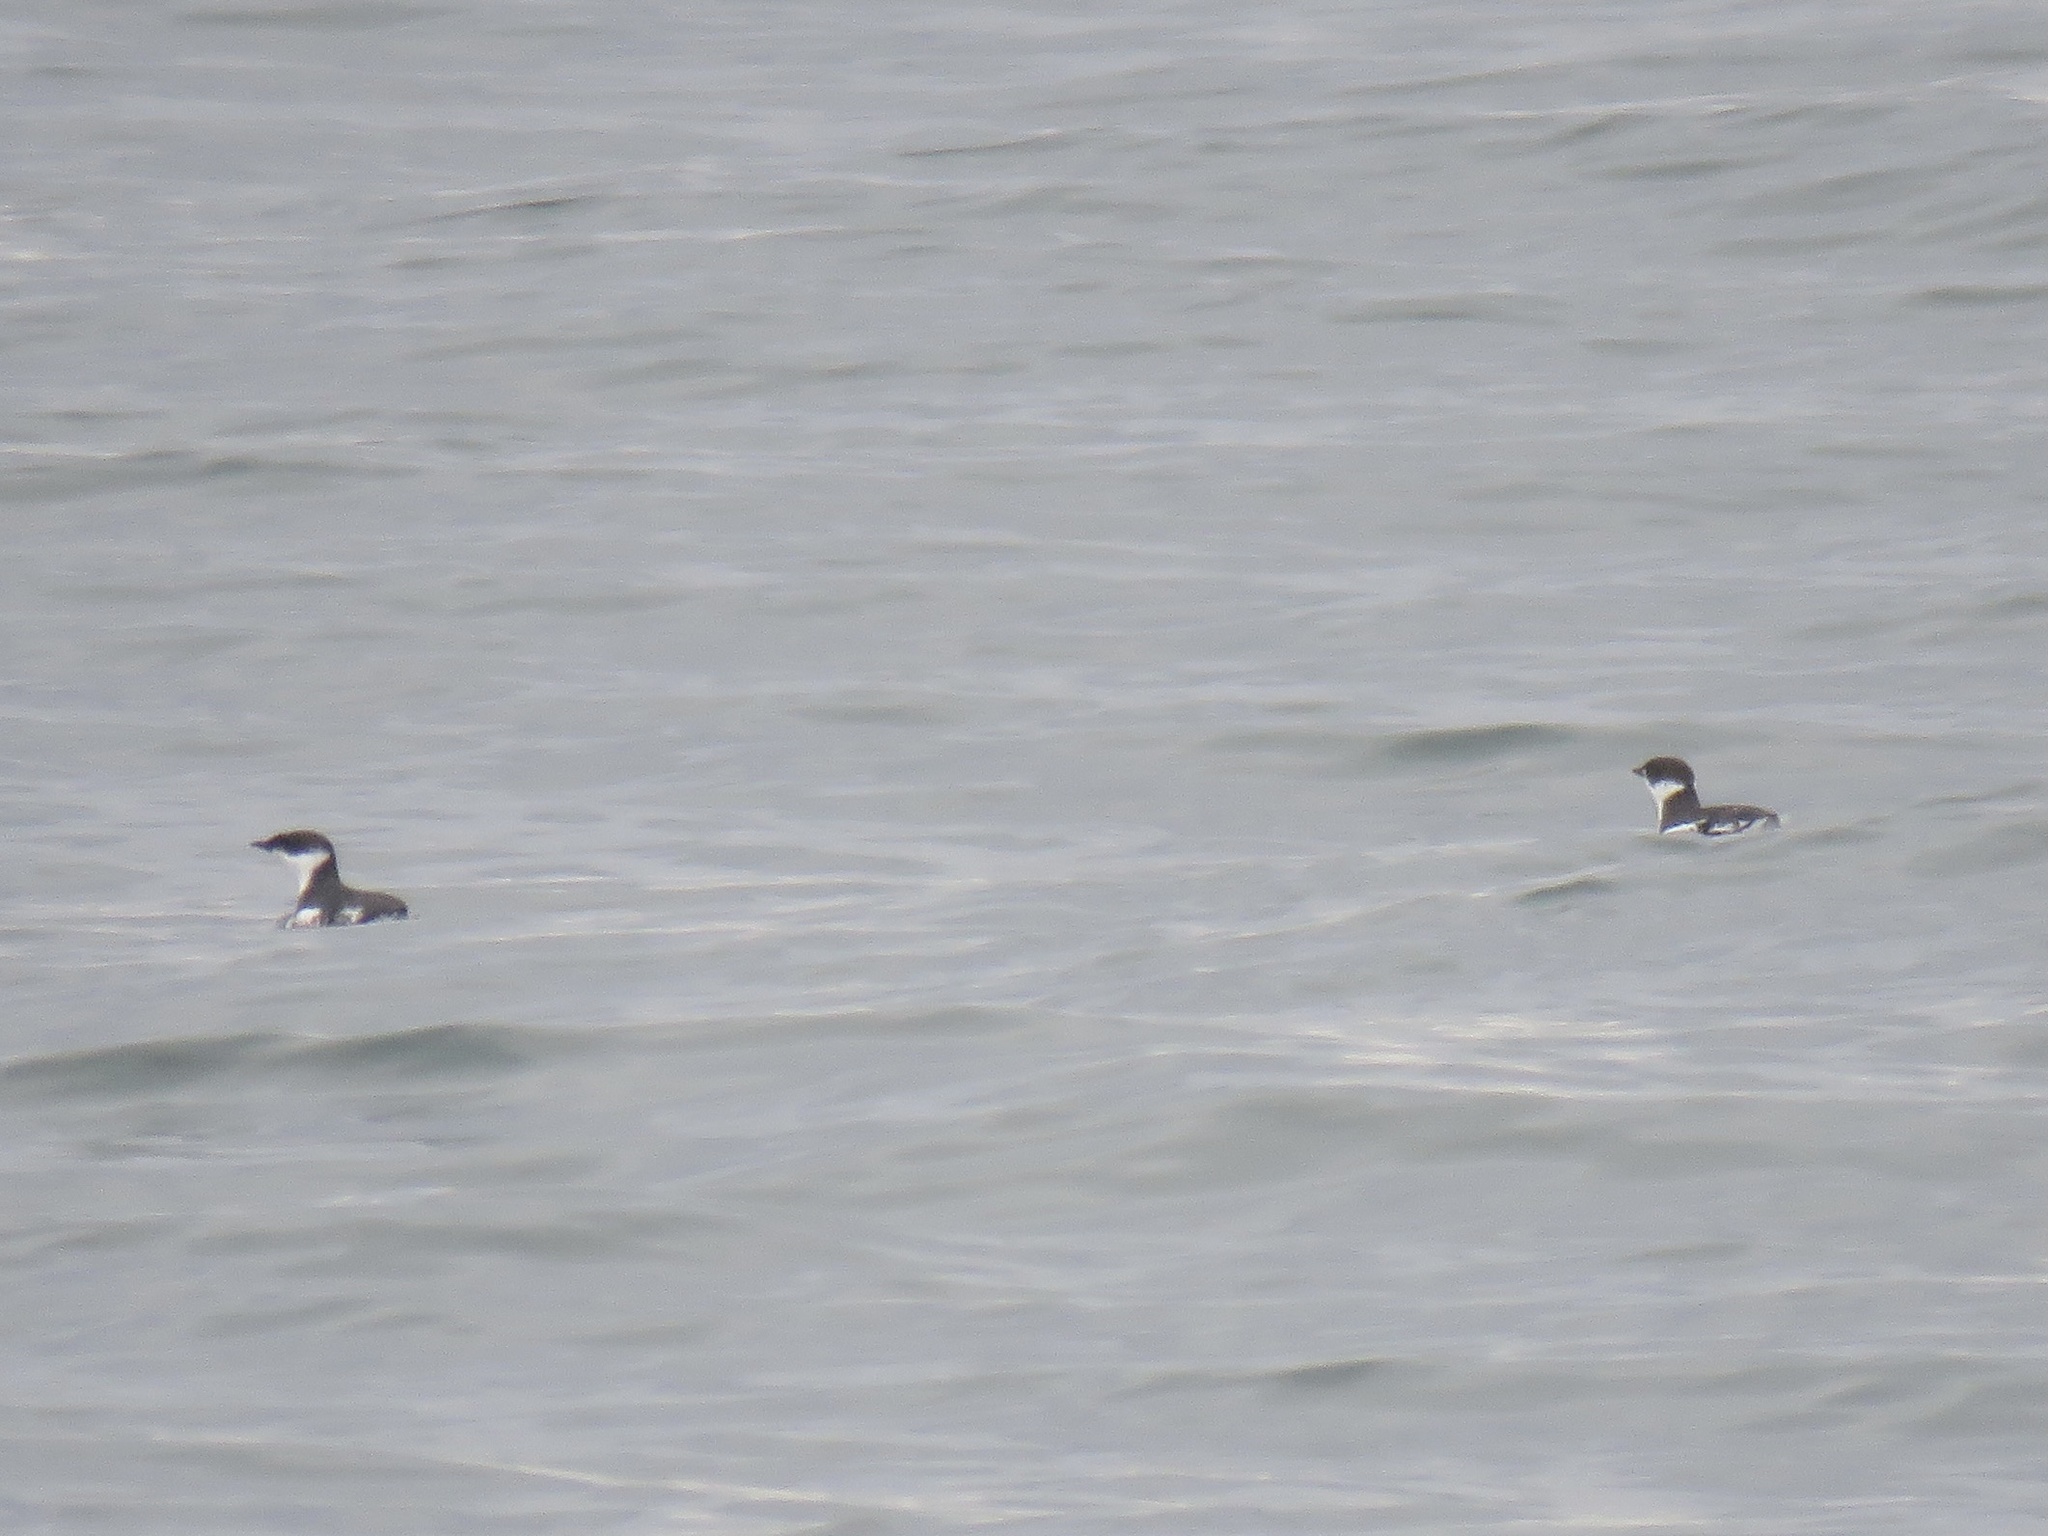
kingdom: Animalia
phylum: Chordata
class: Aves
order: Charadriiformes
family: Alcidae
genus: Brachyramphus
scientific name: Brachyramphus marmoratus
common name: Marbled murrelet
